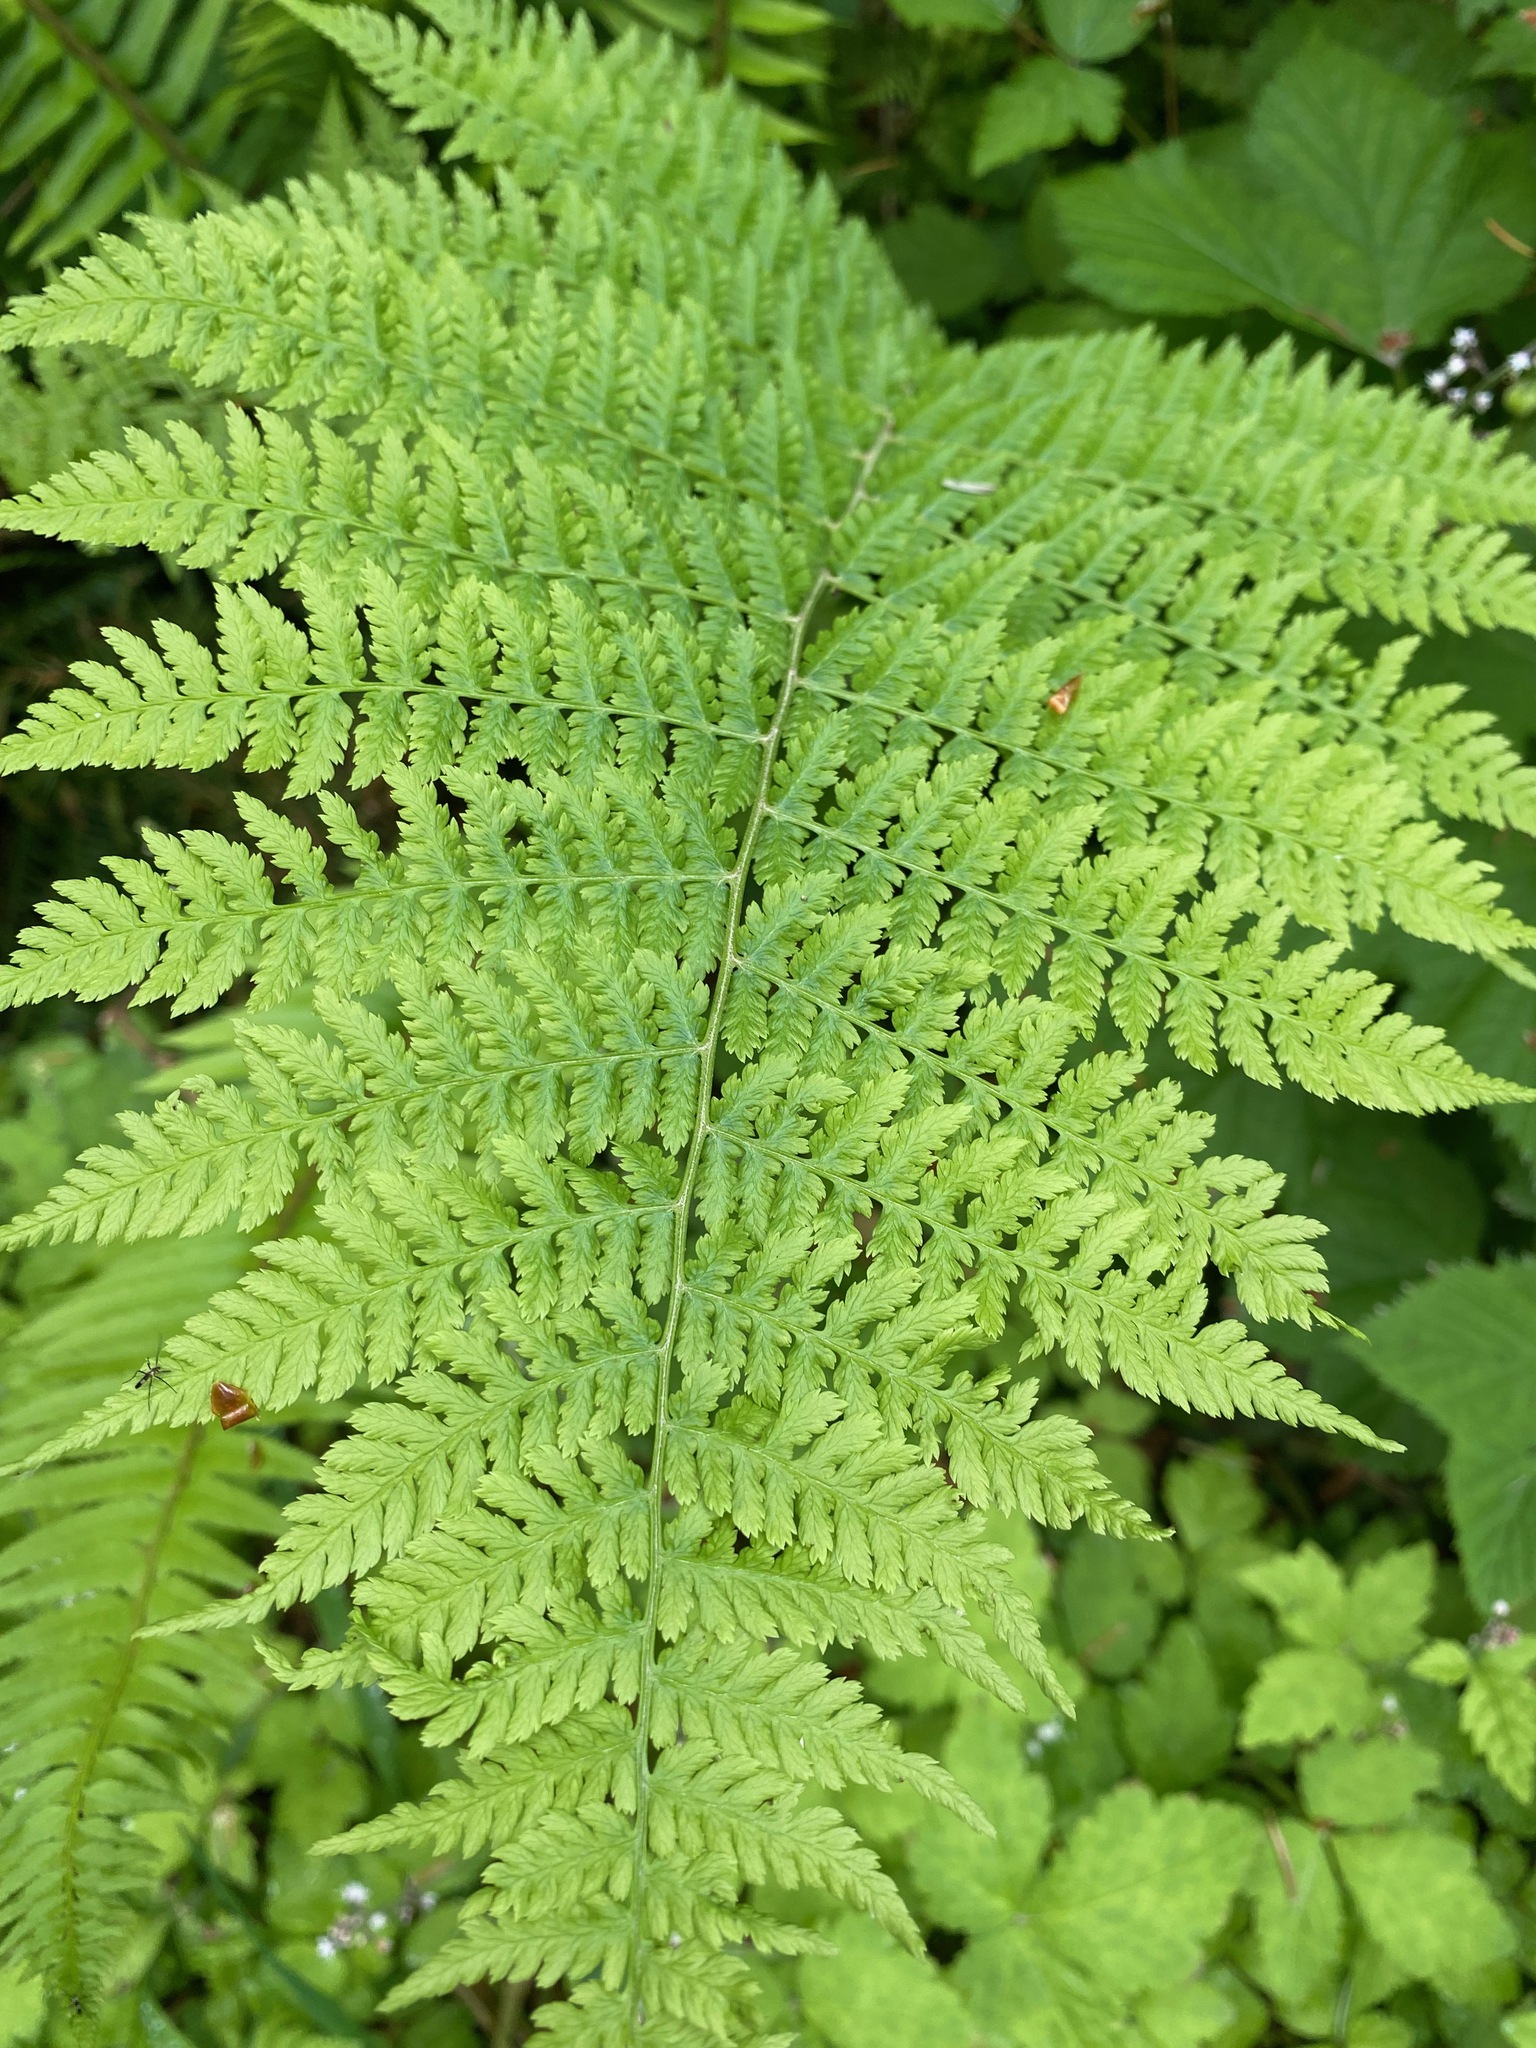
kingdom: Plantae
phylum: Tracheophyta
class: Polypodiopsida
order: Polypodiales
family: Athyriaceae
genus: Athyrium
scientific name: Athyrium filix-femina
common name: Lady fern
